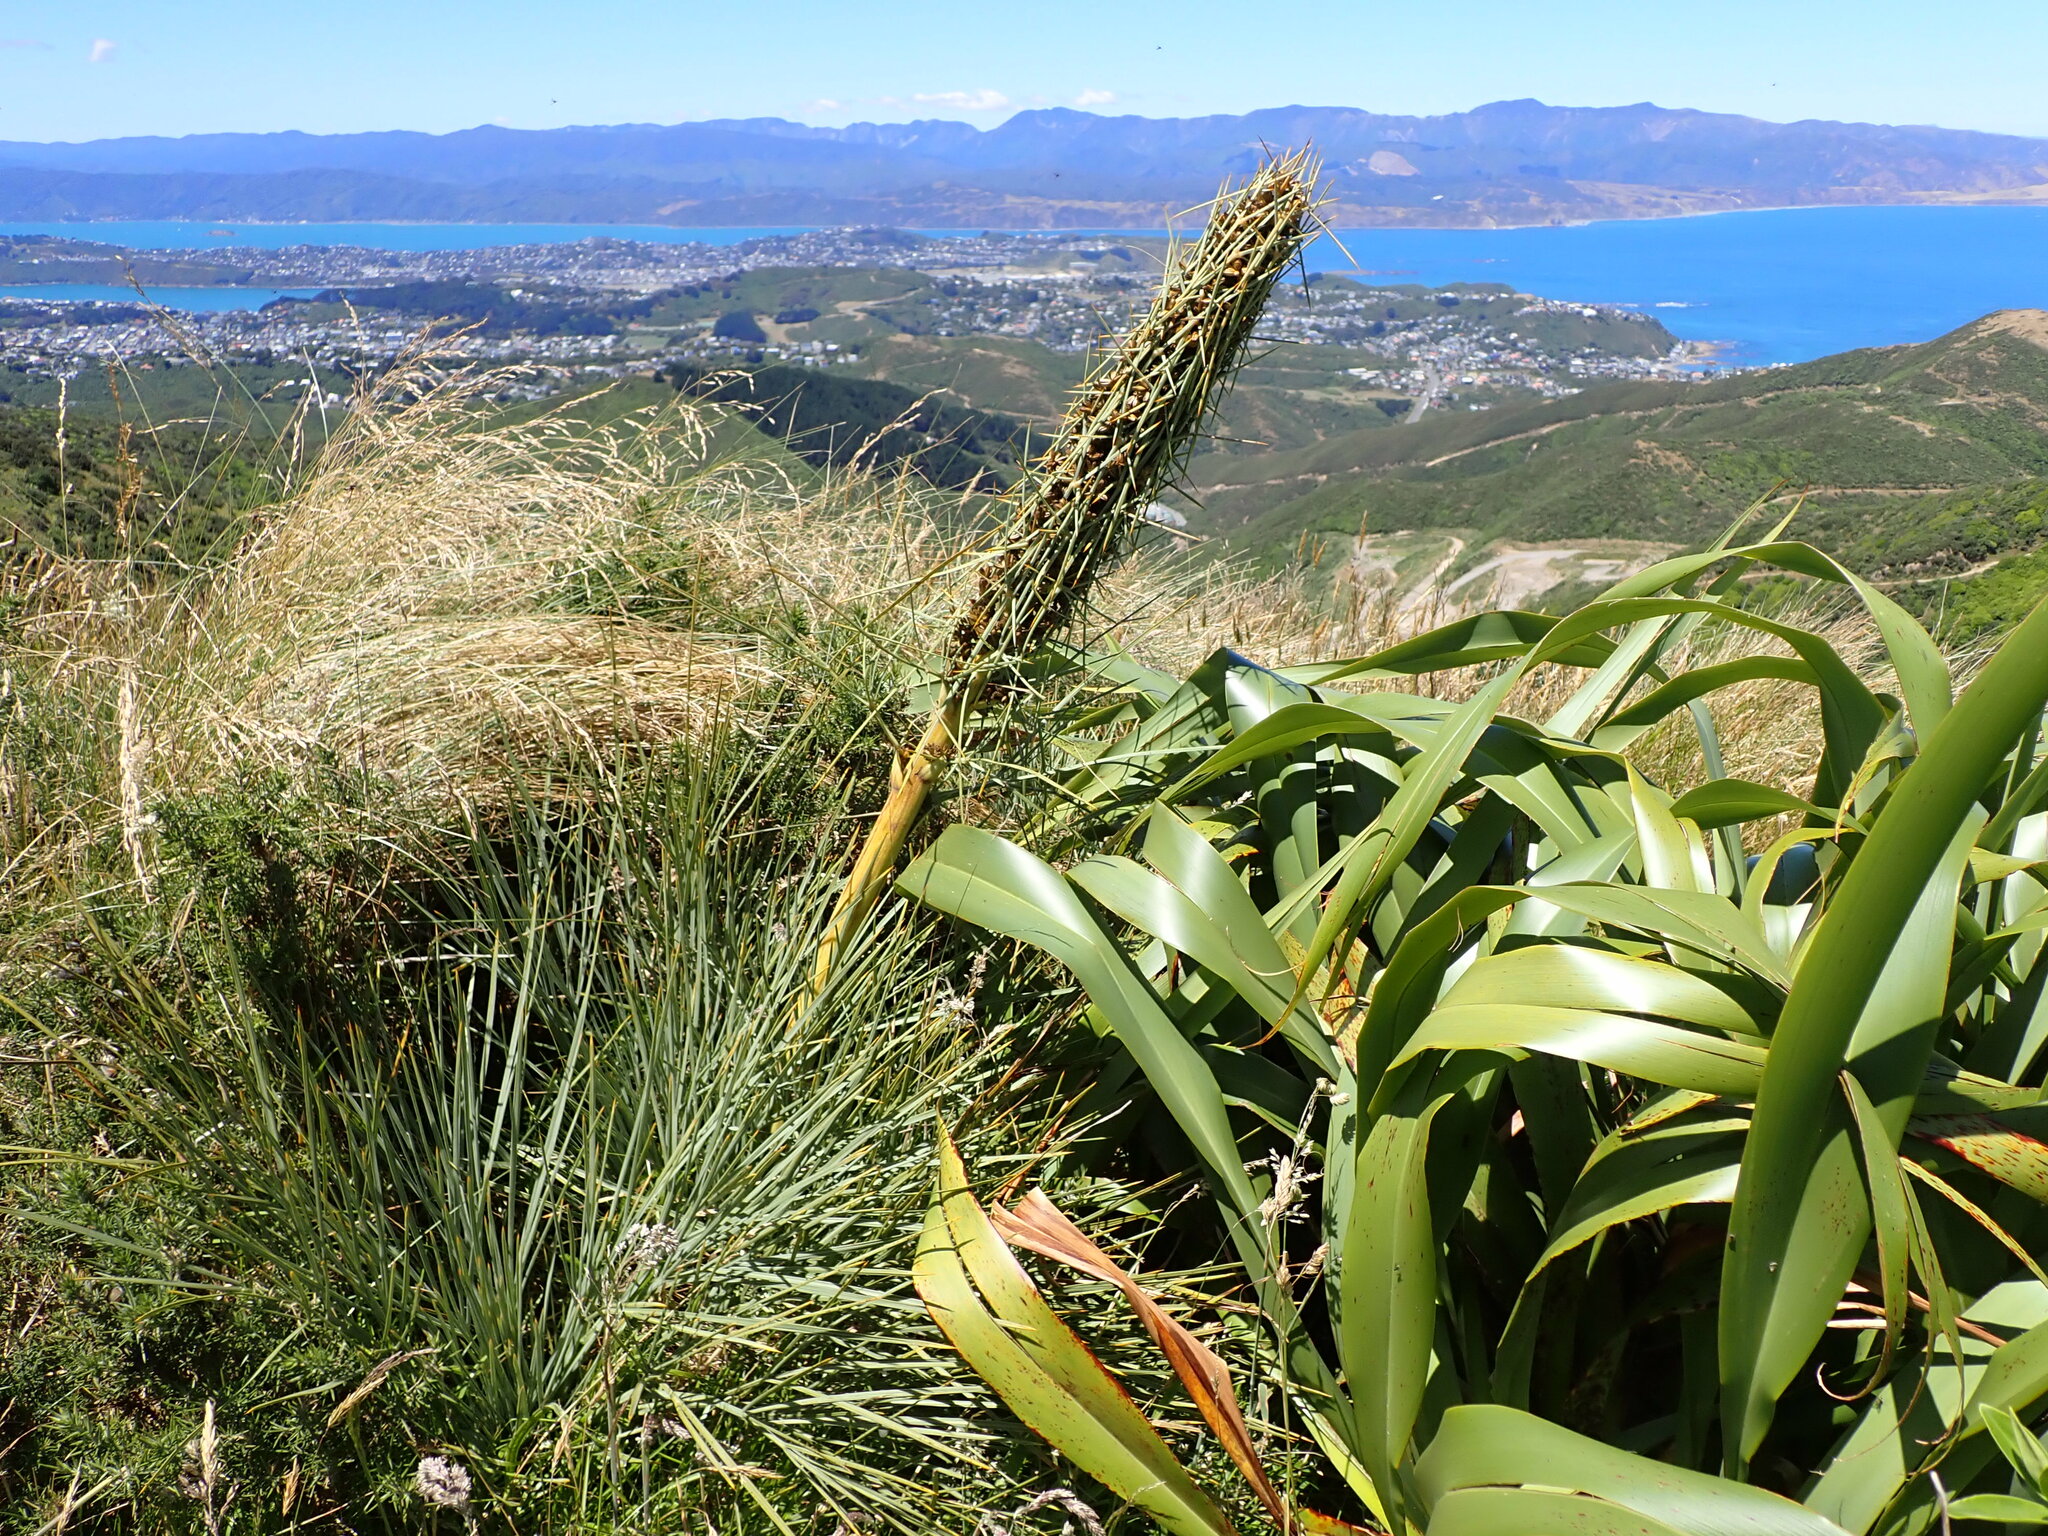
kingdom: Plantae
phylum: Tracheophyta
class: Magnoliopsida
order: Apiales
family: Apiaceae
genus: Aciphylla
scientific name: Aciphylla squarrosa
